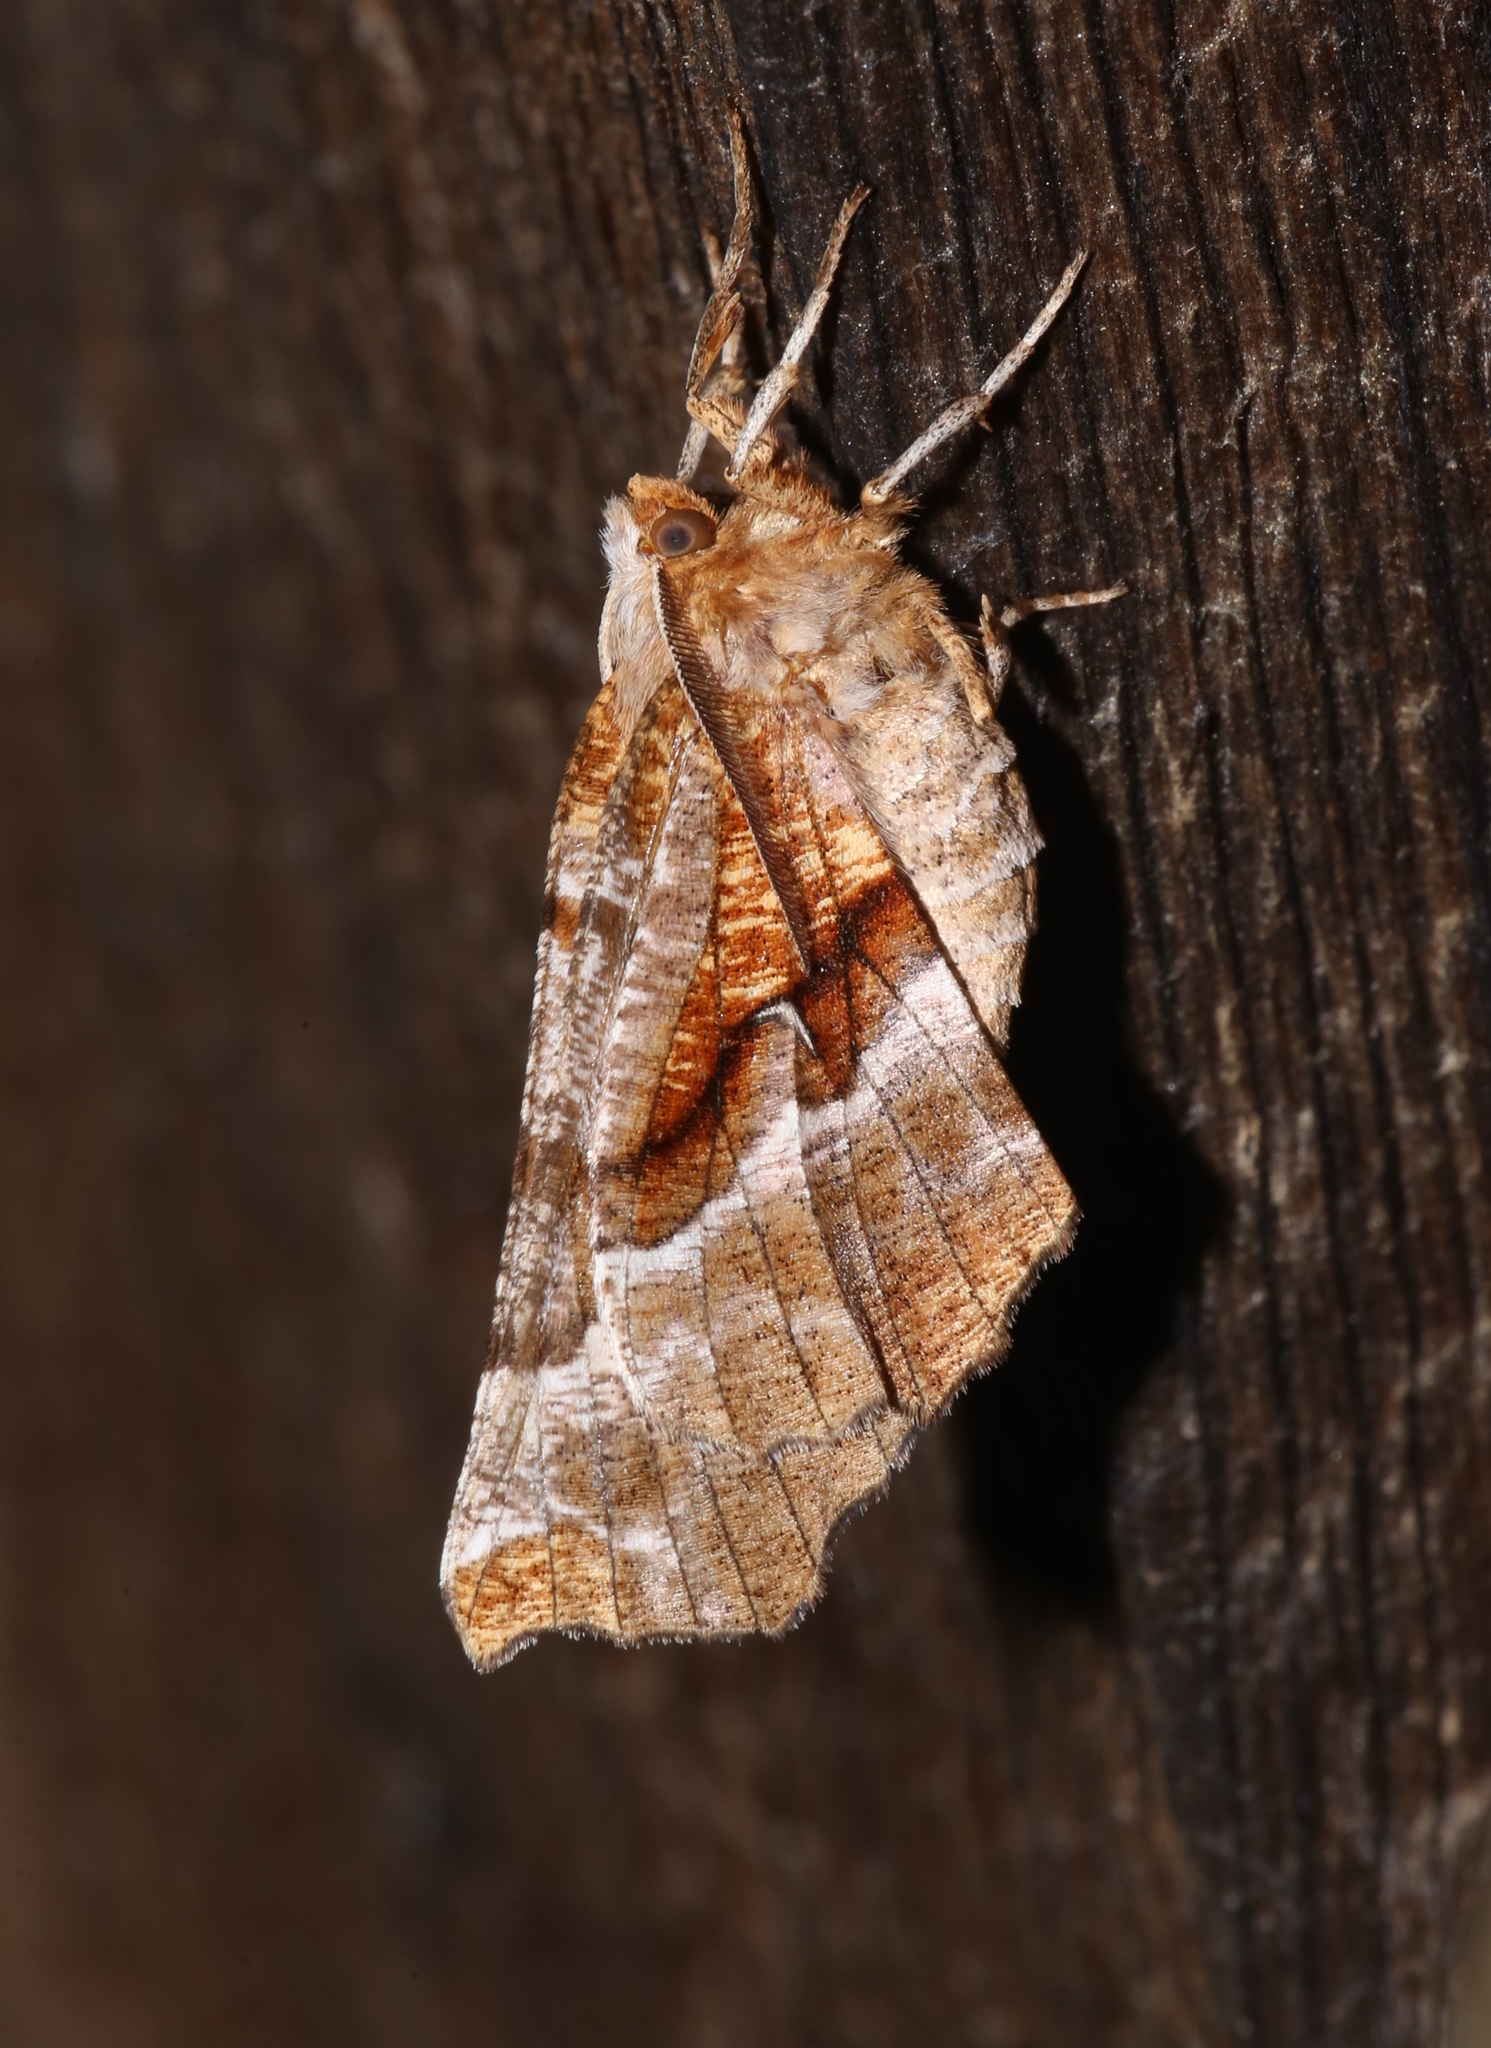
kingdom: Animalia
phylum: Arthropoda
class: Insecta
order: Lepidoptera
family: Geometridae
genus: Selenia
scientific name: Selenia kentaria
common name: Kent's geometer
